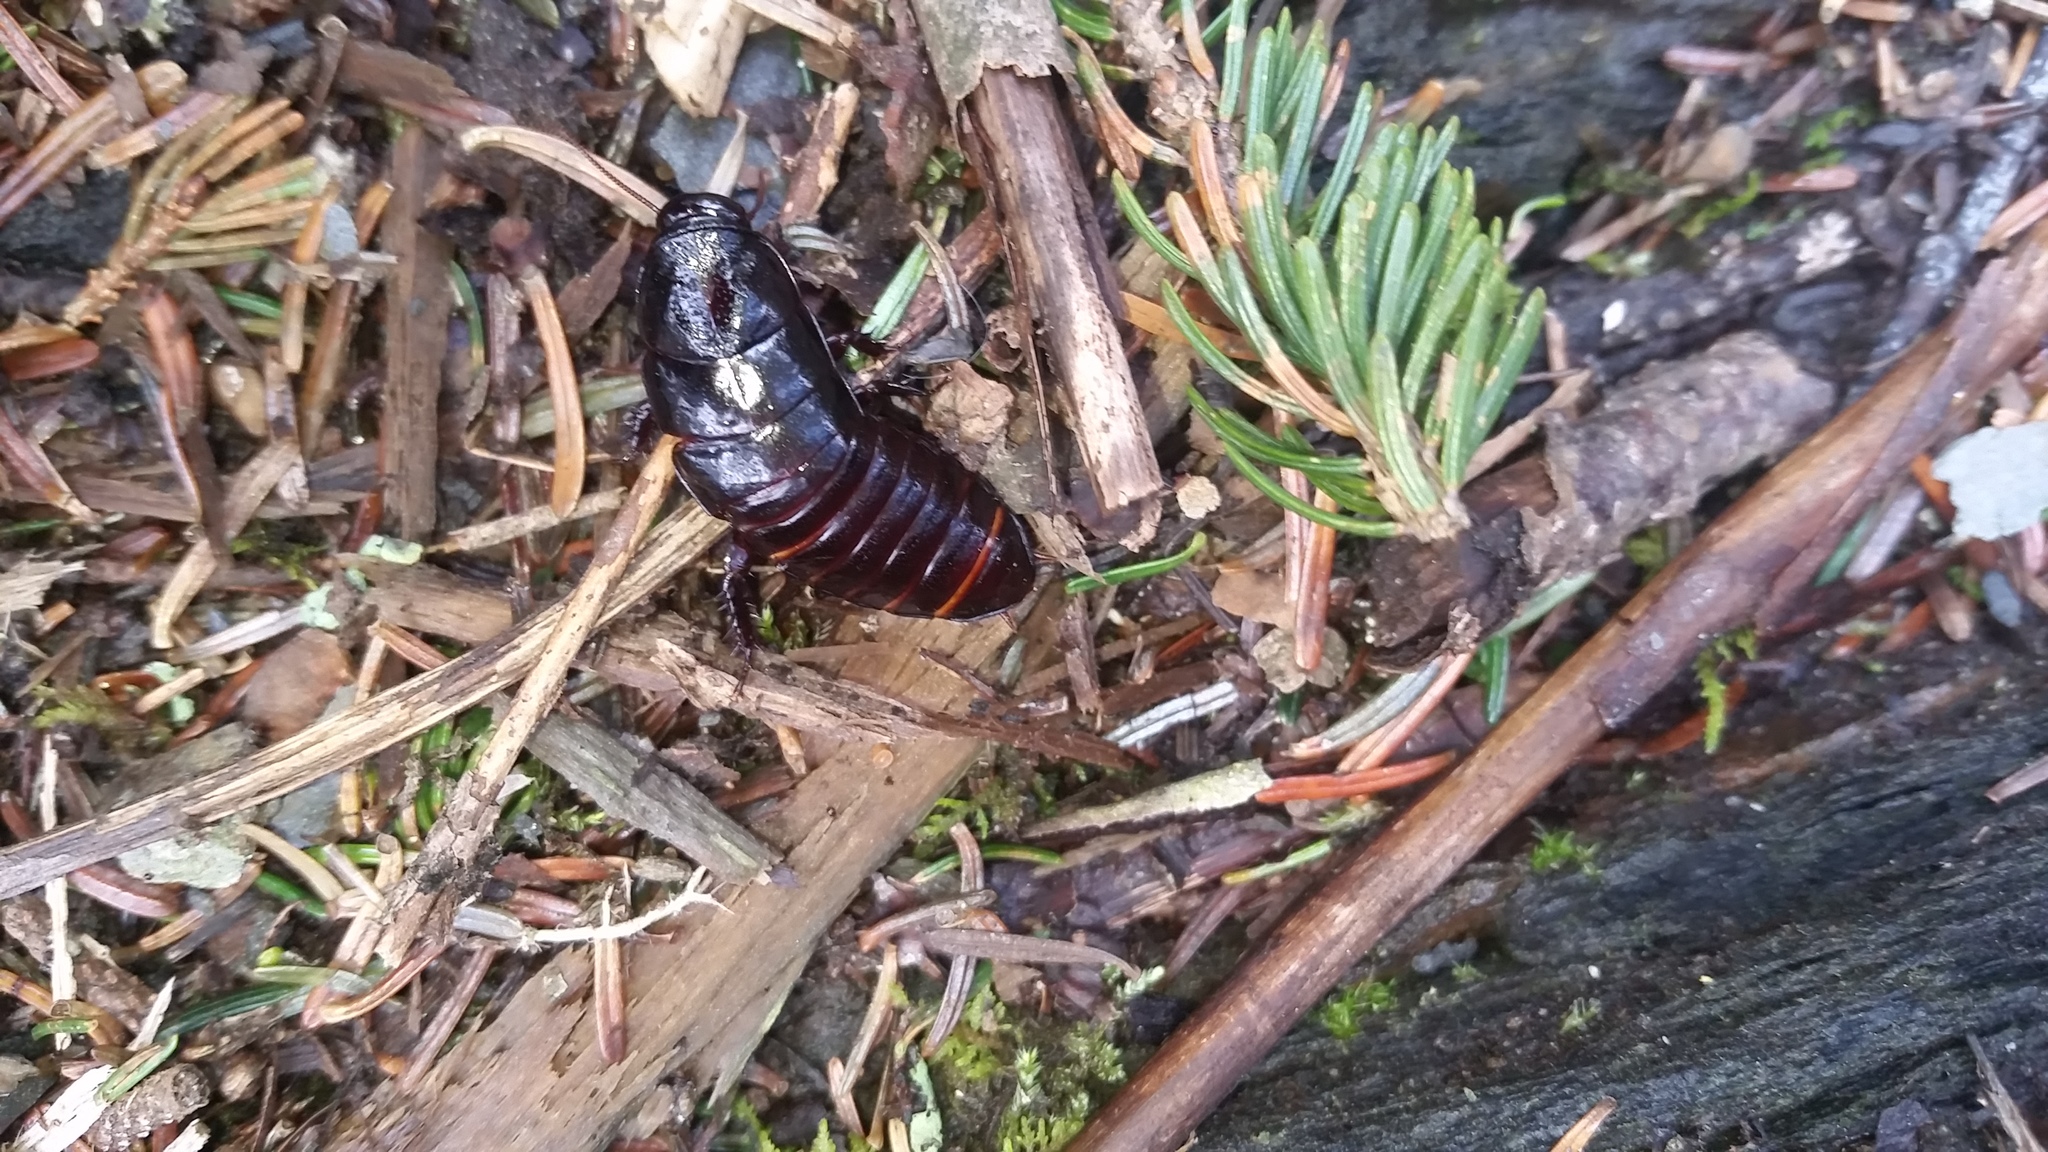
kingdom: Animalia
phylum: Arthropoda
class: Insecta
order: Blattodea
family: Cryptocercidae
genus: Cryptocercus
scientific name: Cryptocercus wrighti
